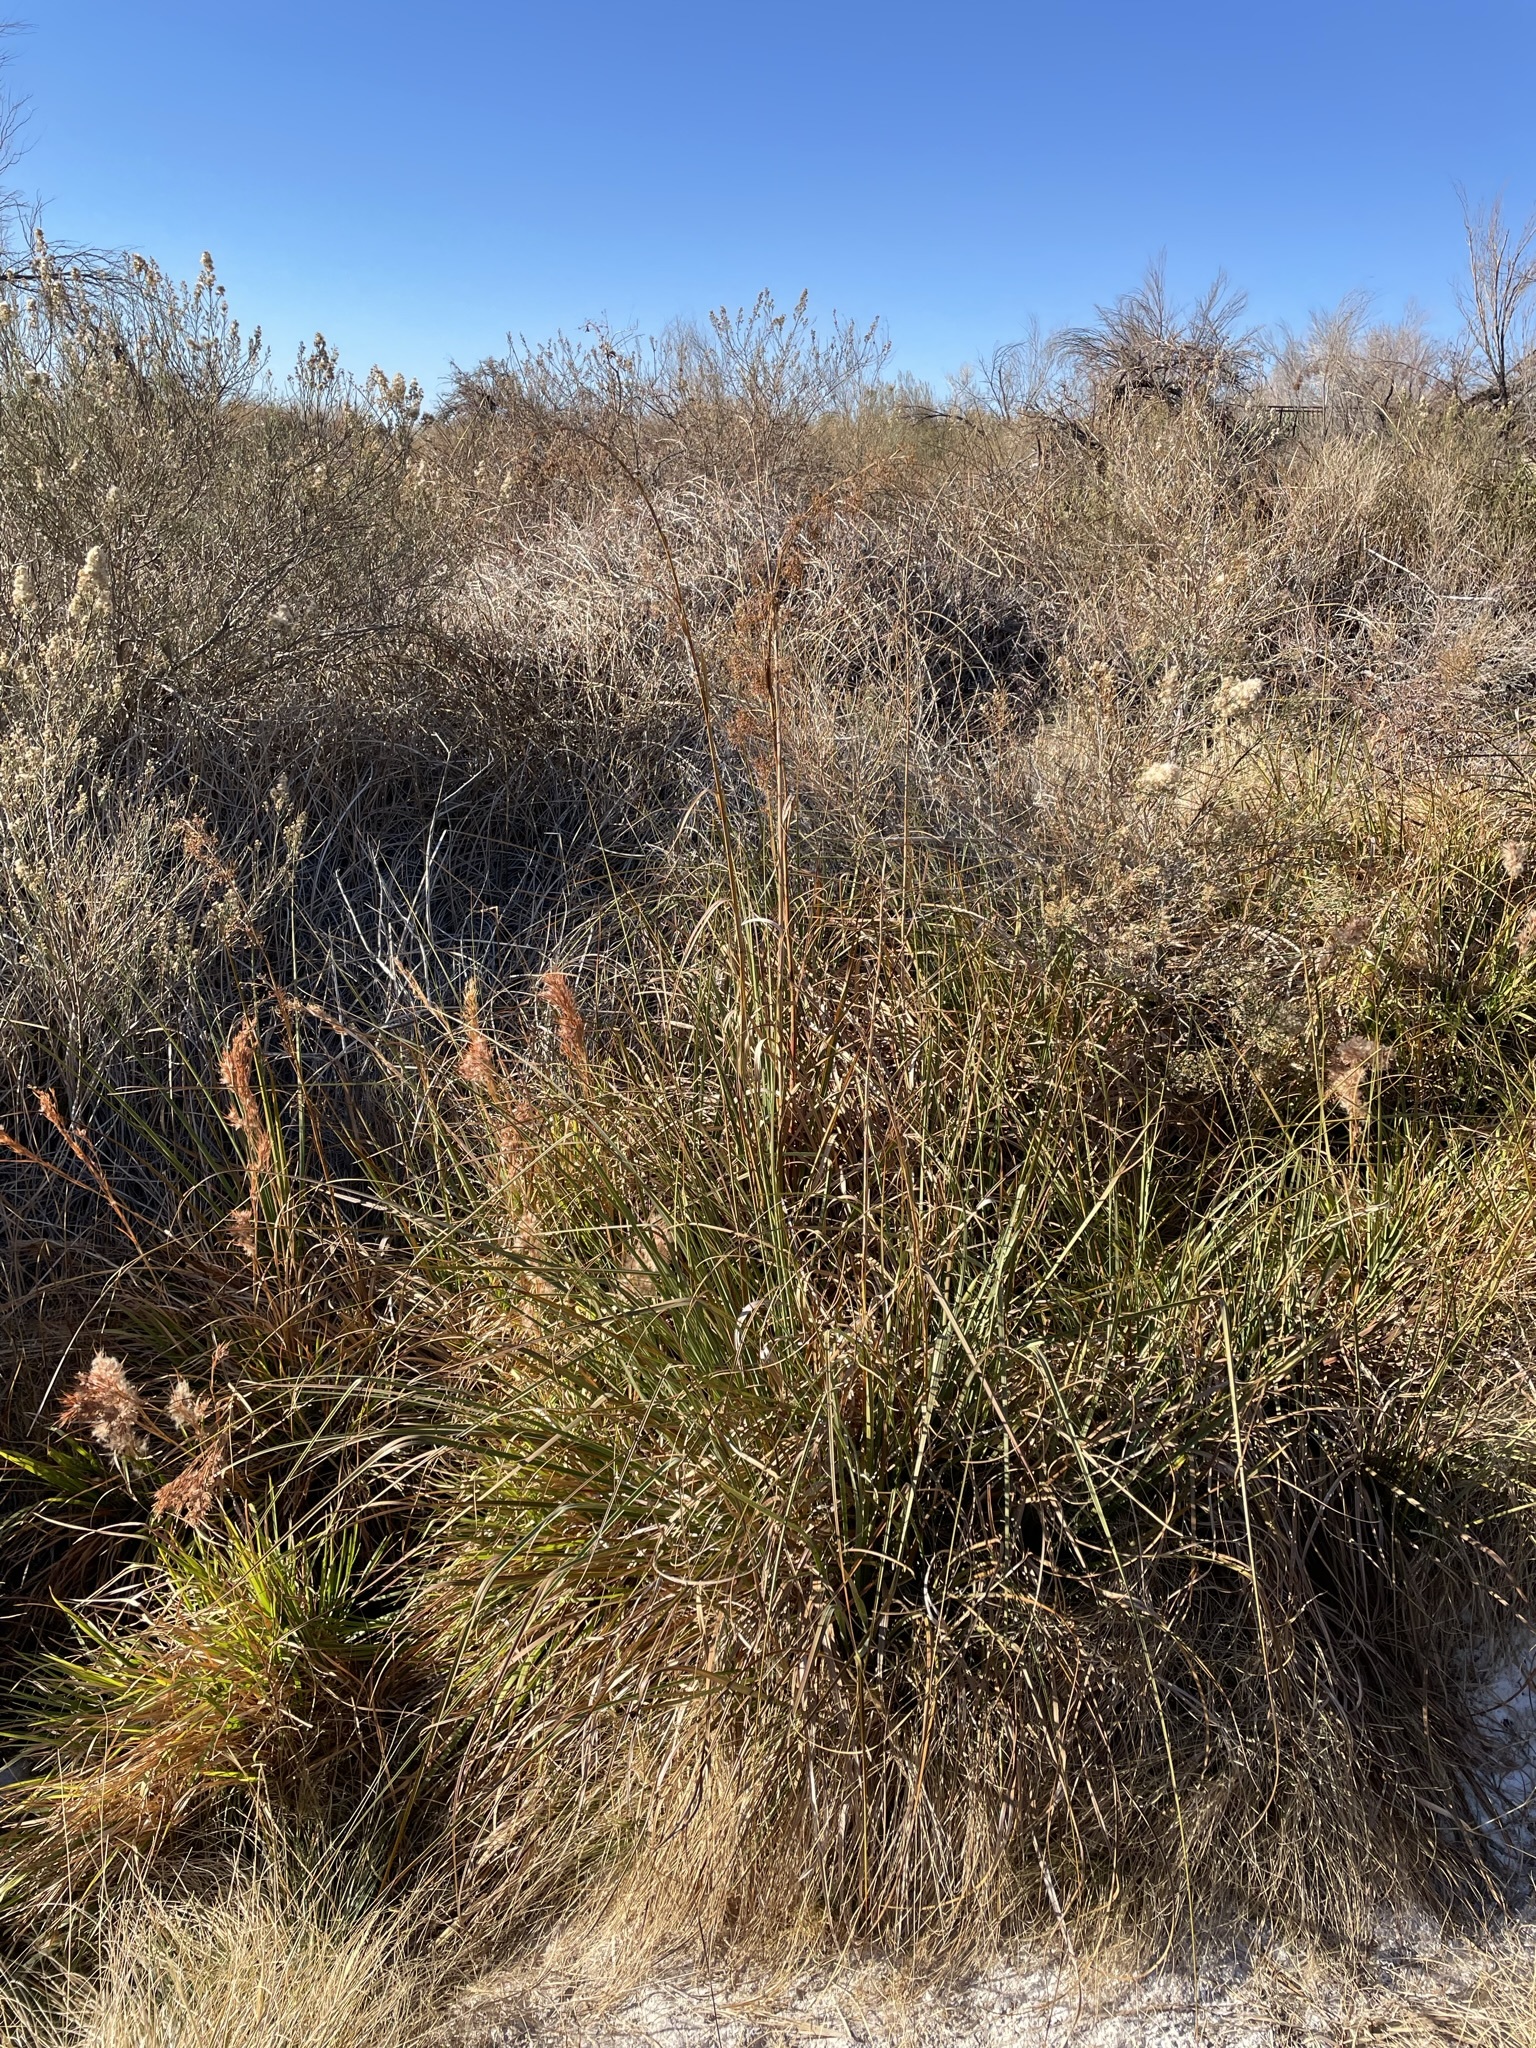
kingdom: Plantae
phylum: Tracheophyta
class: Liliopsida
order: Poales
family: Cyperaceae
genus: Cladium
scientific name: Cladium mariscus
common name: Great fen-sedge
